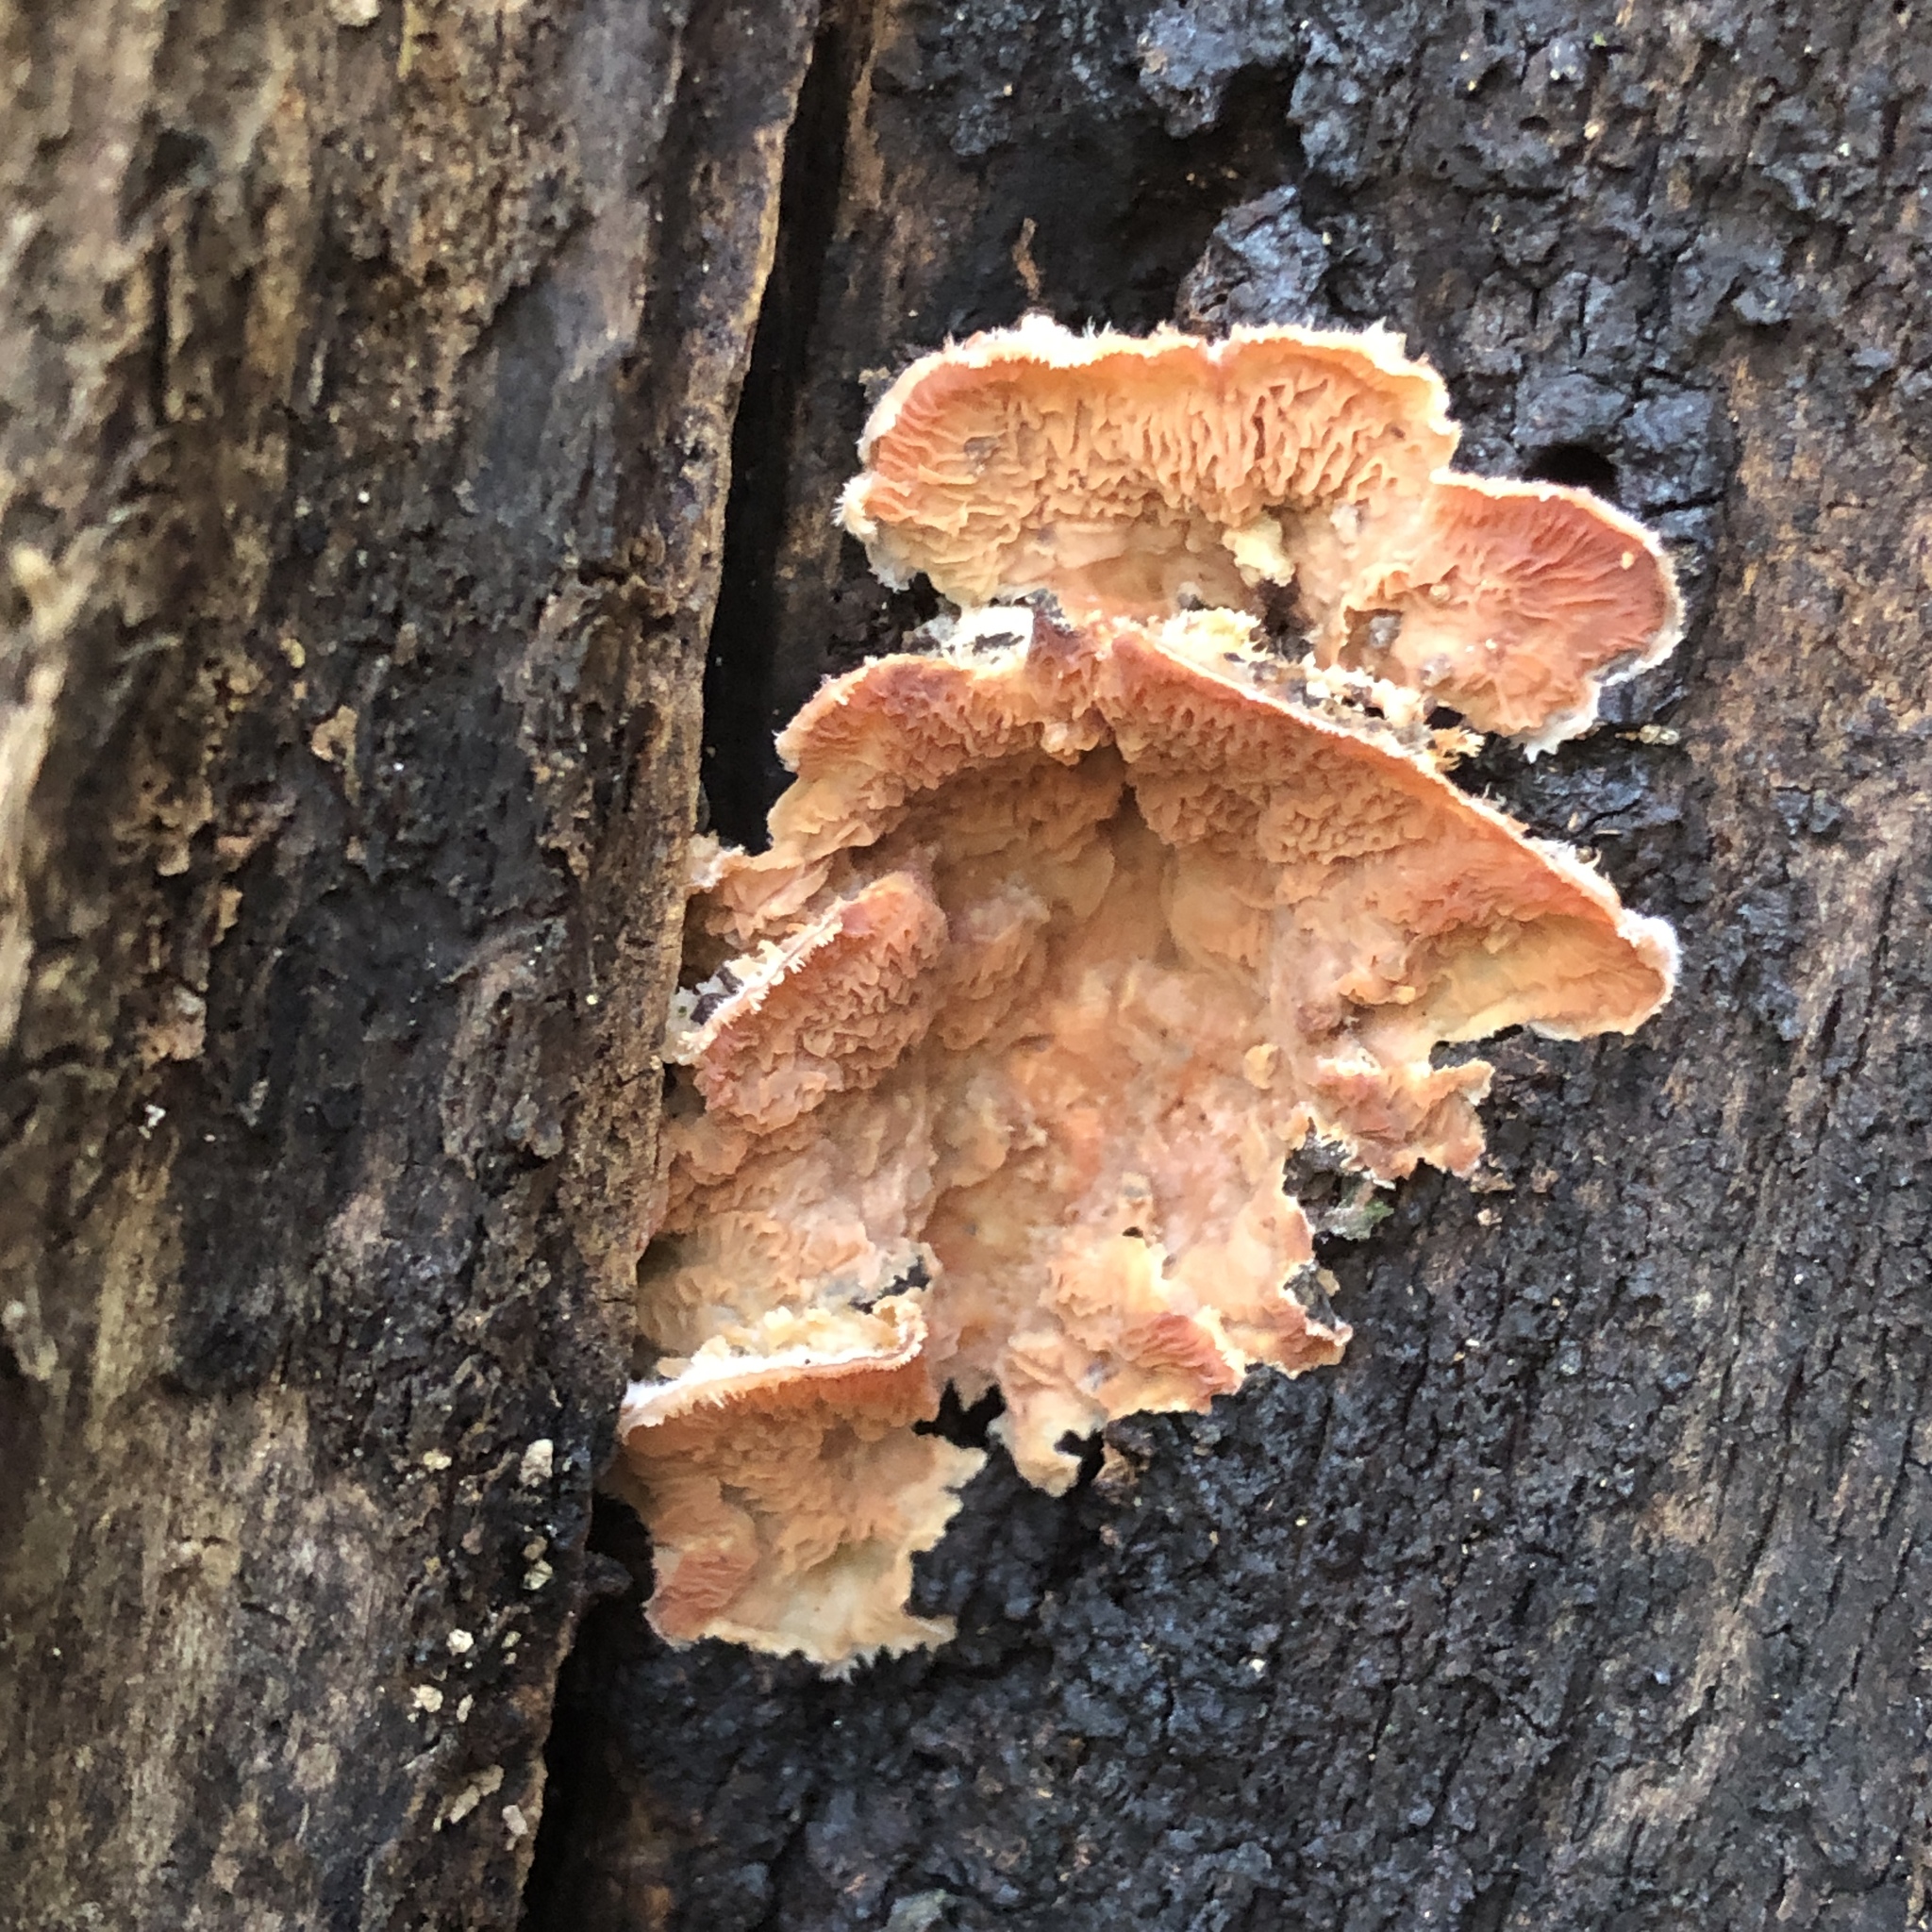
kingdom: Fungi
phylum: Basidiomycota
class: Agaricomycetes
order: Polyporales
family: Meruliaceae
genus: Phlebia
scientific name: Phlebia tremellosa
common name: Jelly rot
